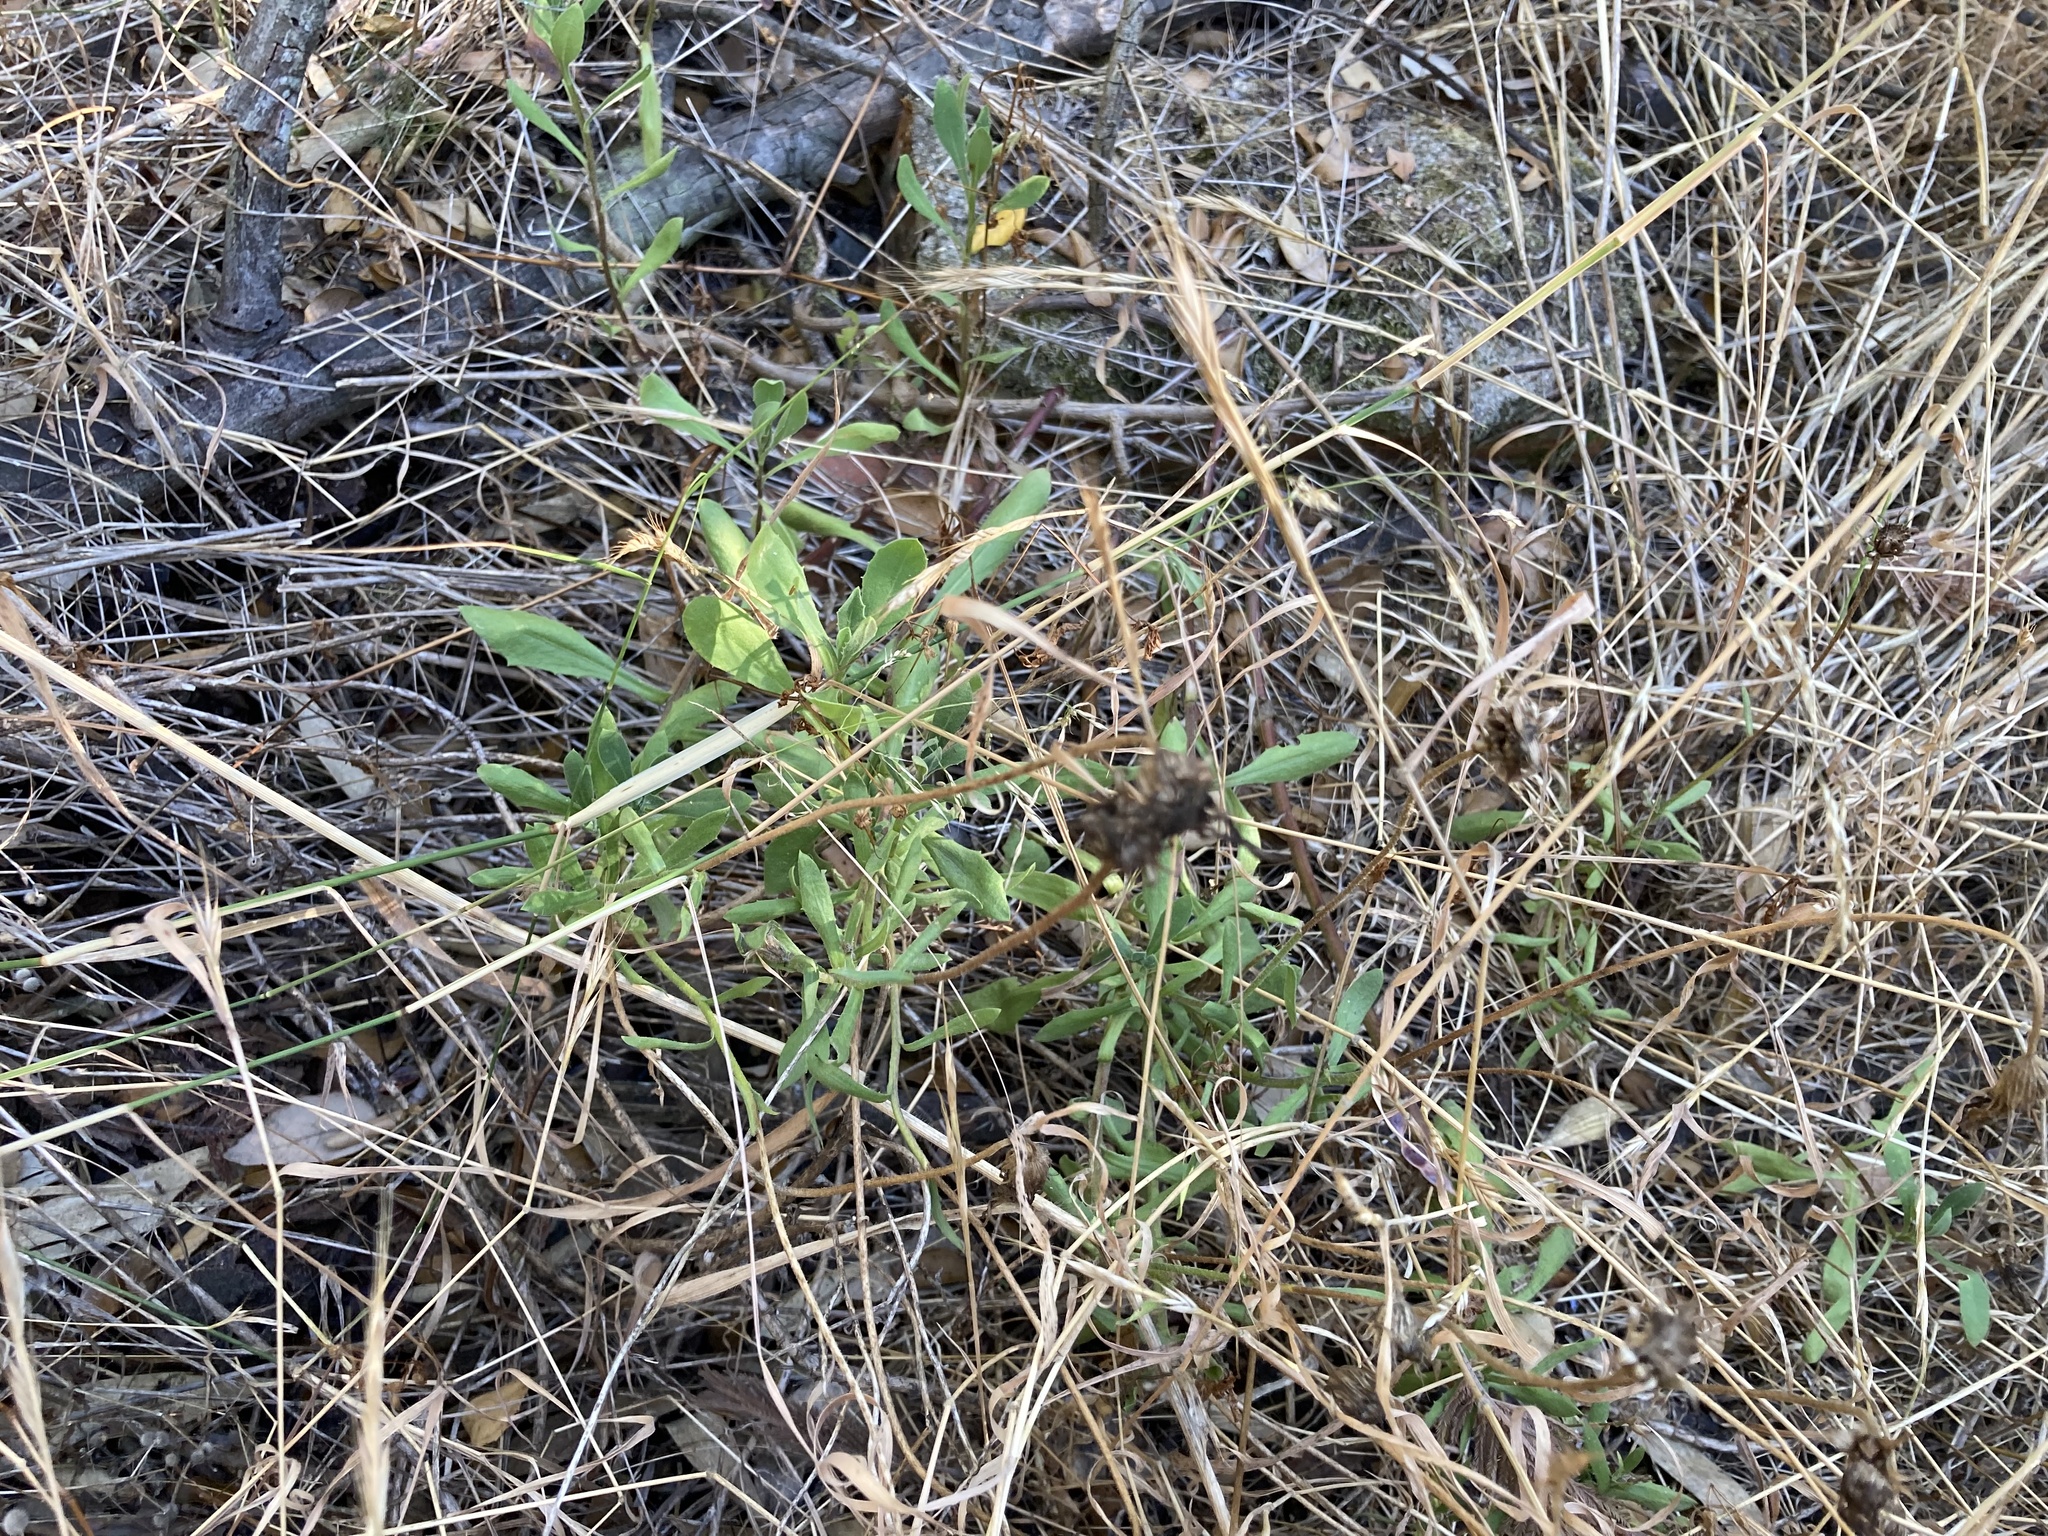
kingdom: Plantae
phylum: Tracheophyta
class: Magnoliopsida
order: Asterales
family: Asteraceae
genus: Dimorphotheca
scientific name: Dimorphotheca ecklonis
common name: Vanstaden's river daisy
